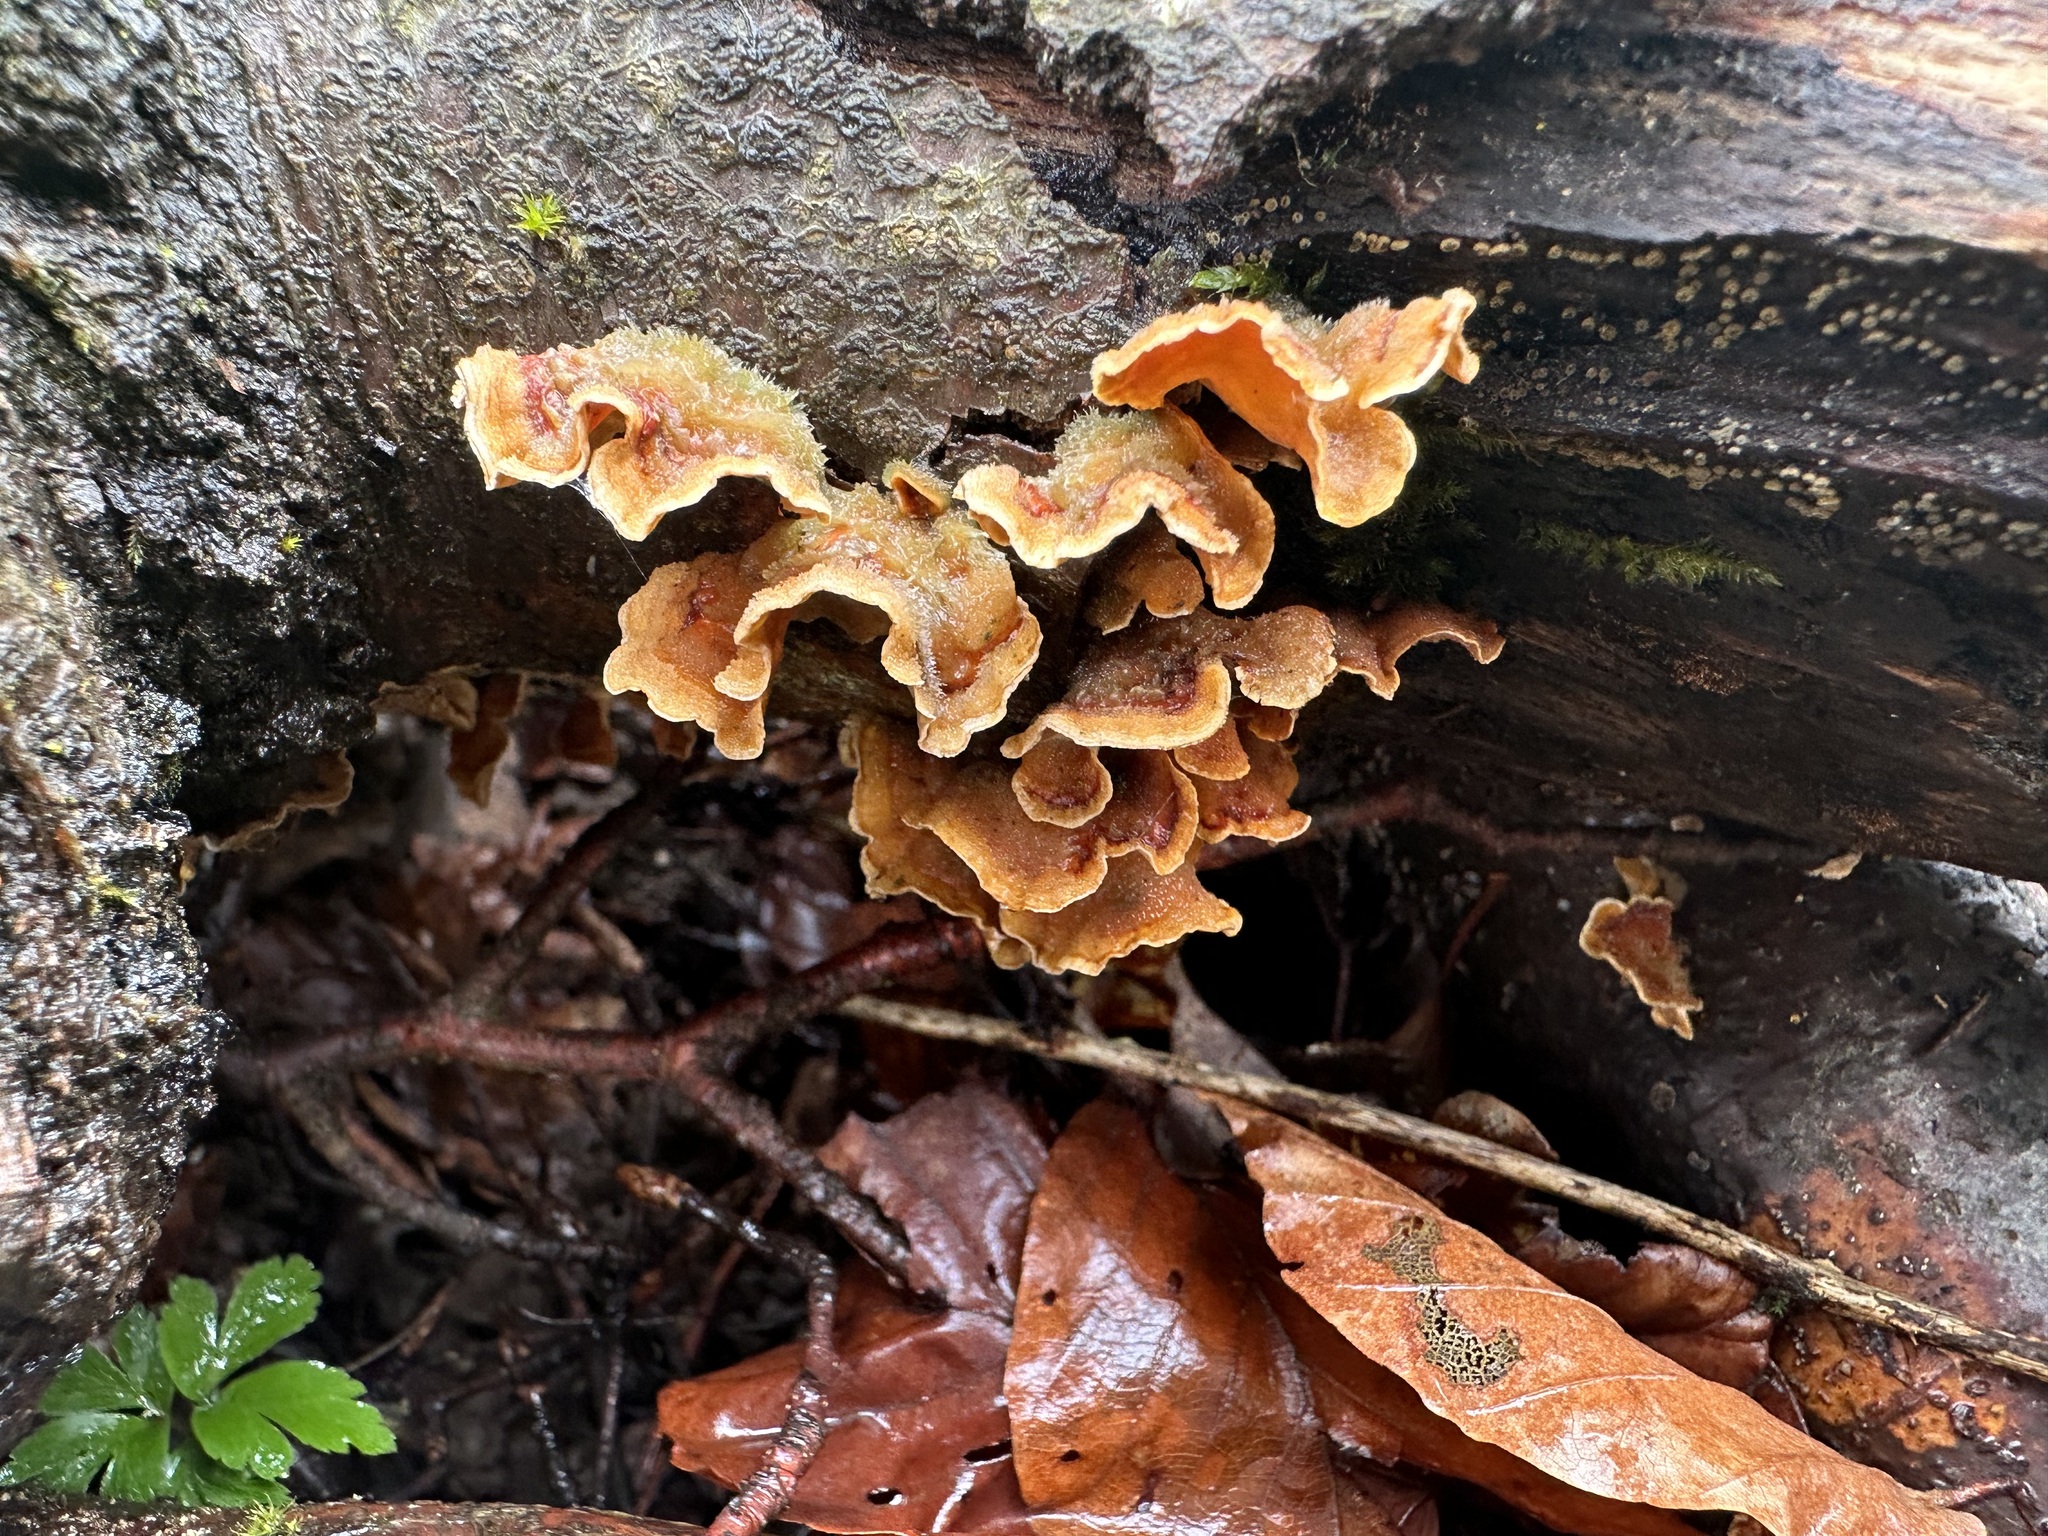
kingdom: Fungi
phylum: Basidiomycota
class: Agaricomycetes
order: Russulales
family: Stereaceae
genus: Stereum
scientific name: Stereum hirsutum
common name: Hairy curtain crust
